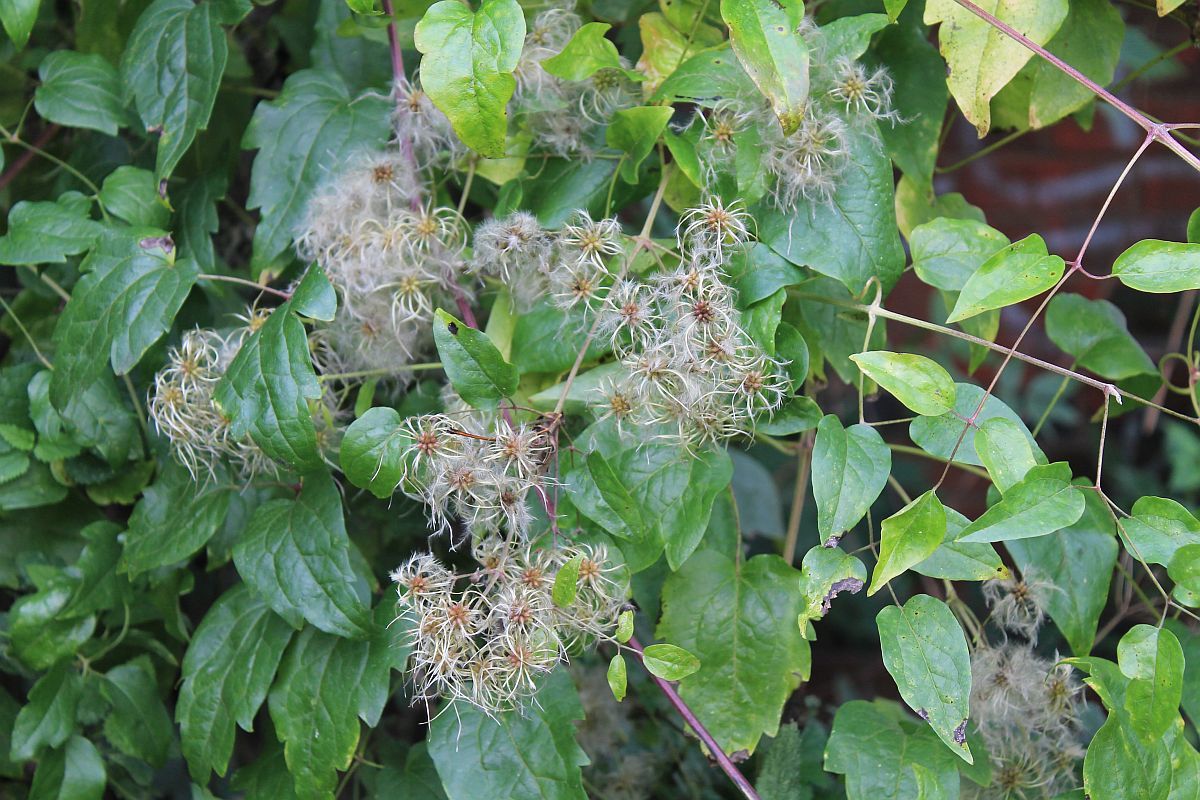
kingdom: Plantae
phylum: Tracheophyta
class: Magnoliopsida
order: Ranunculales
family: Ranunculaceae
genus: Clematis
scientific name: Clematis vitalba
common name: Evergreen clematis
